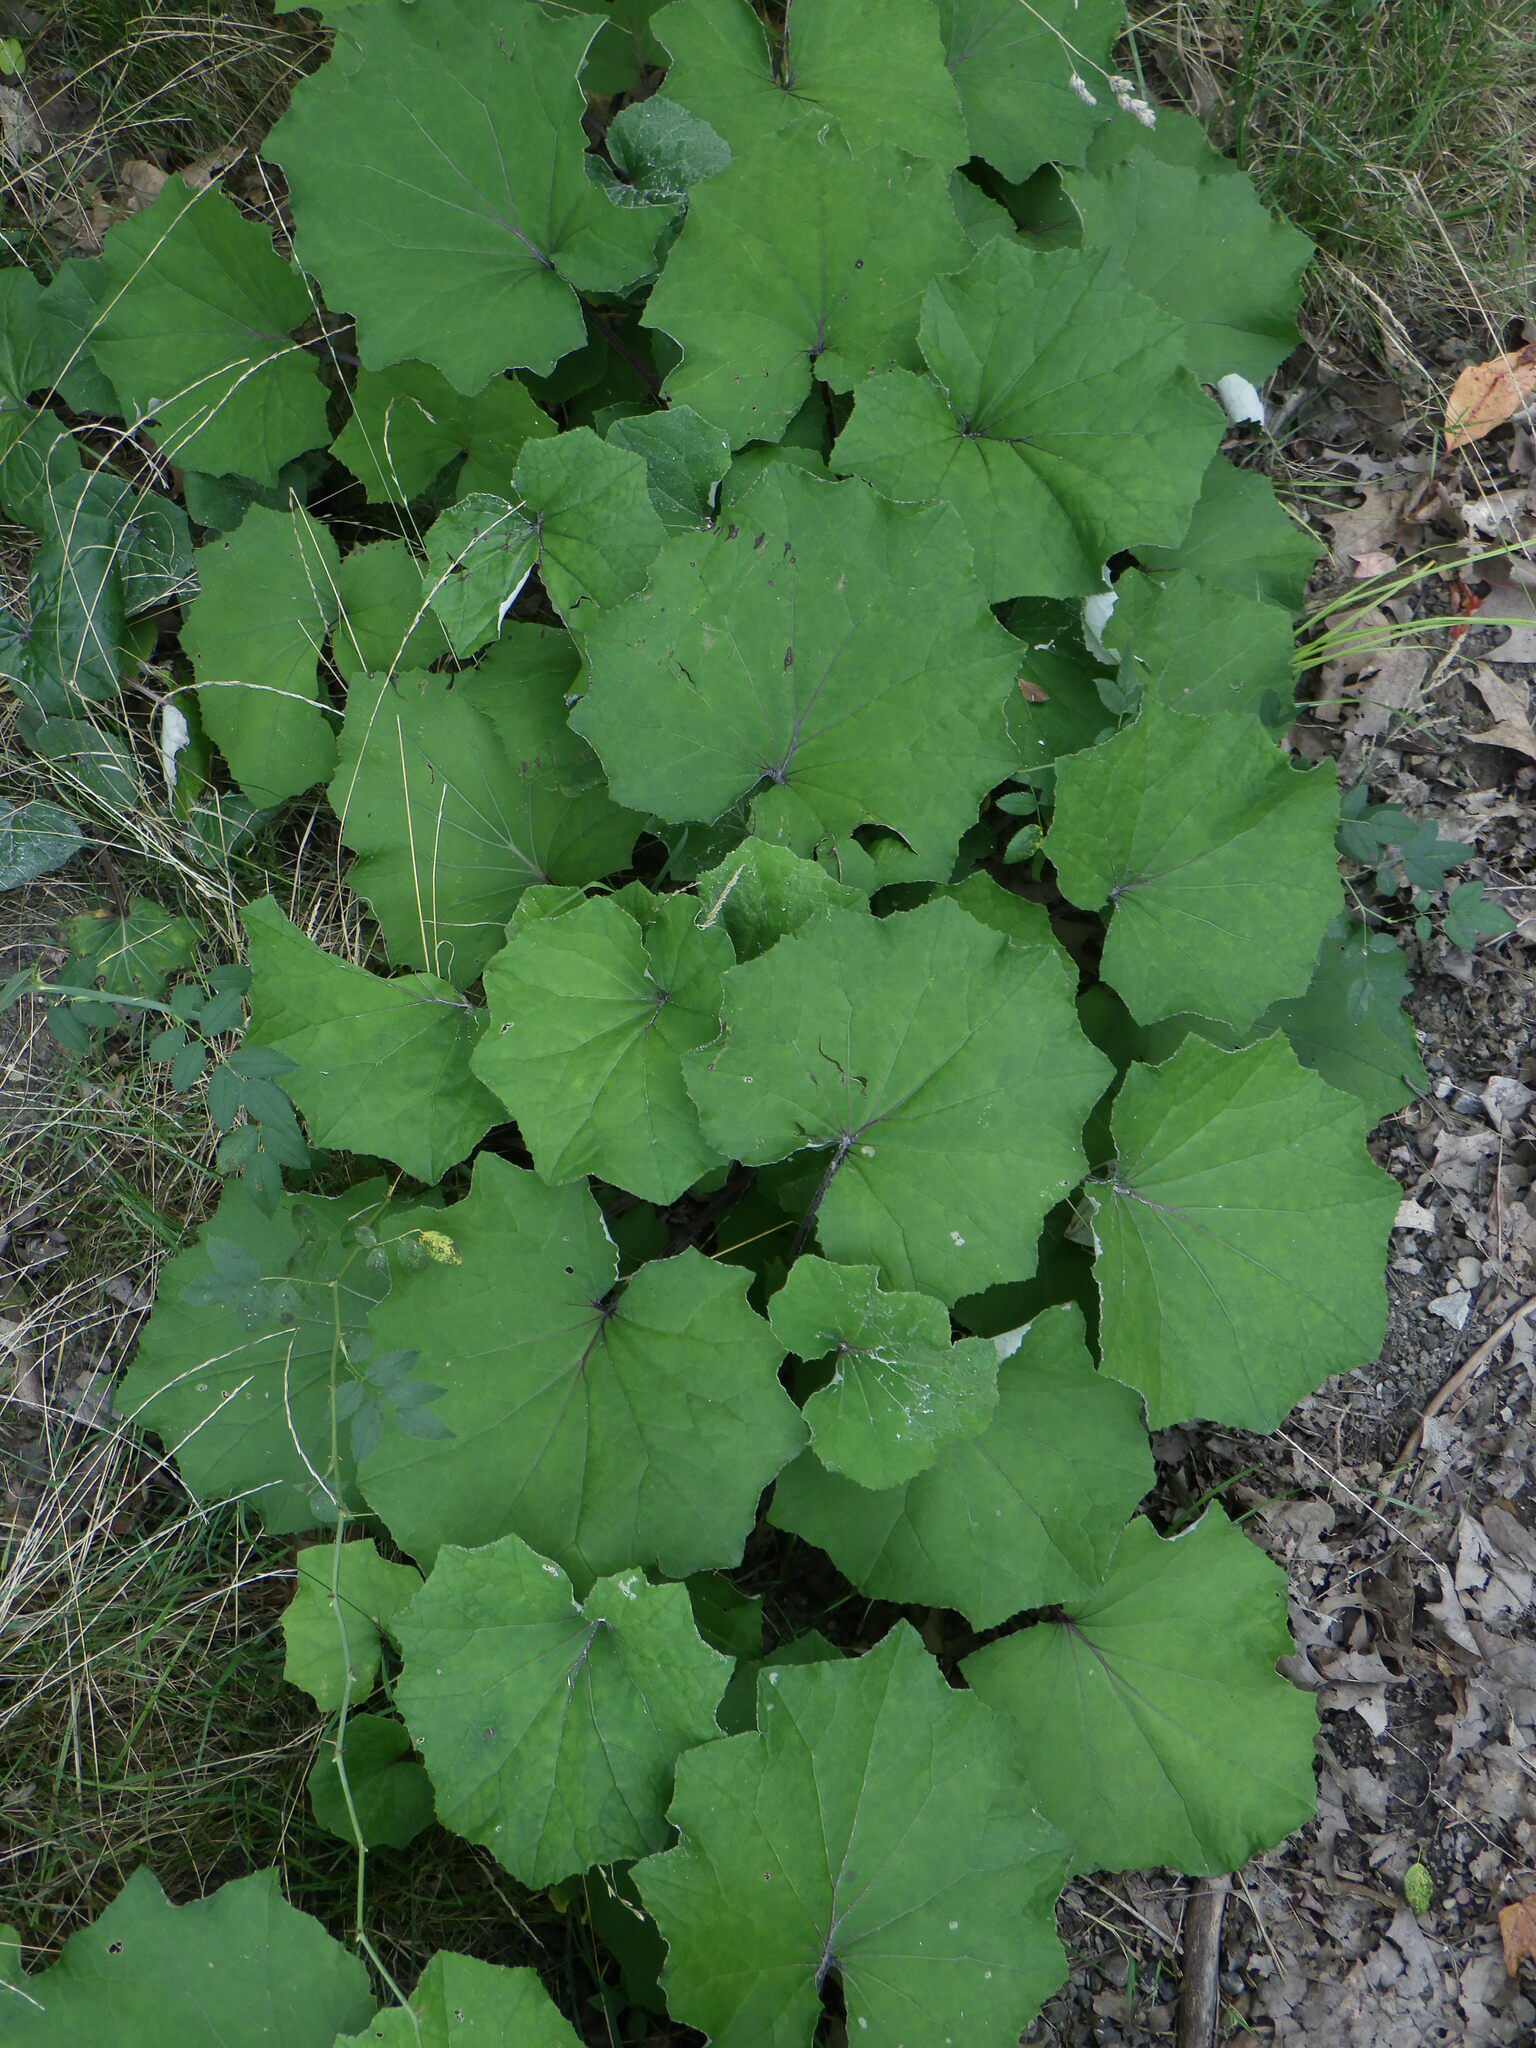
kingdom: Plantae
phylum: Tracheophyta
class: Magnoliopsida
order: Asterales
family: Asteraceae
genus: Tussilago
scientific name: Tussilago farfara
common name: Coltsfoot
